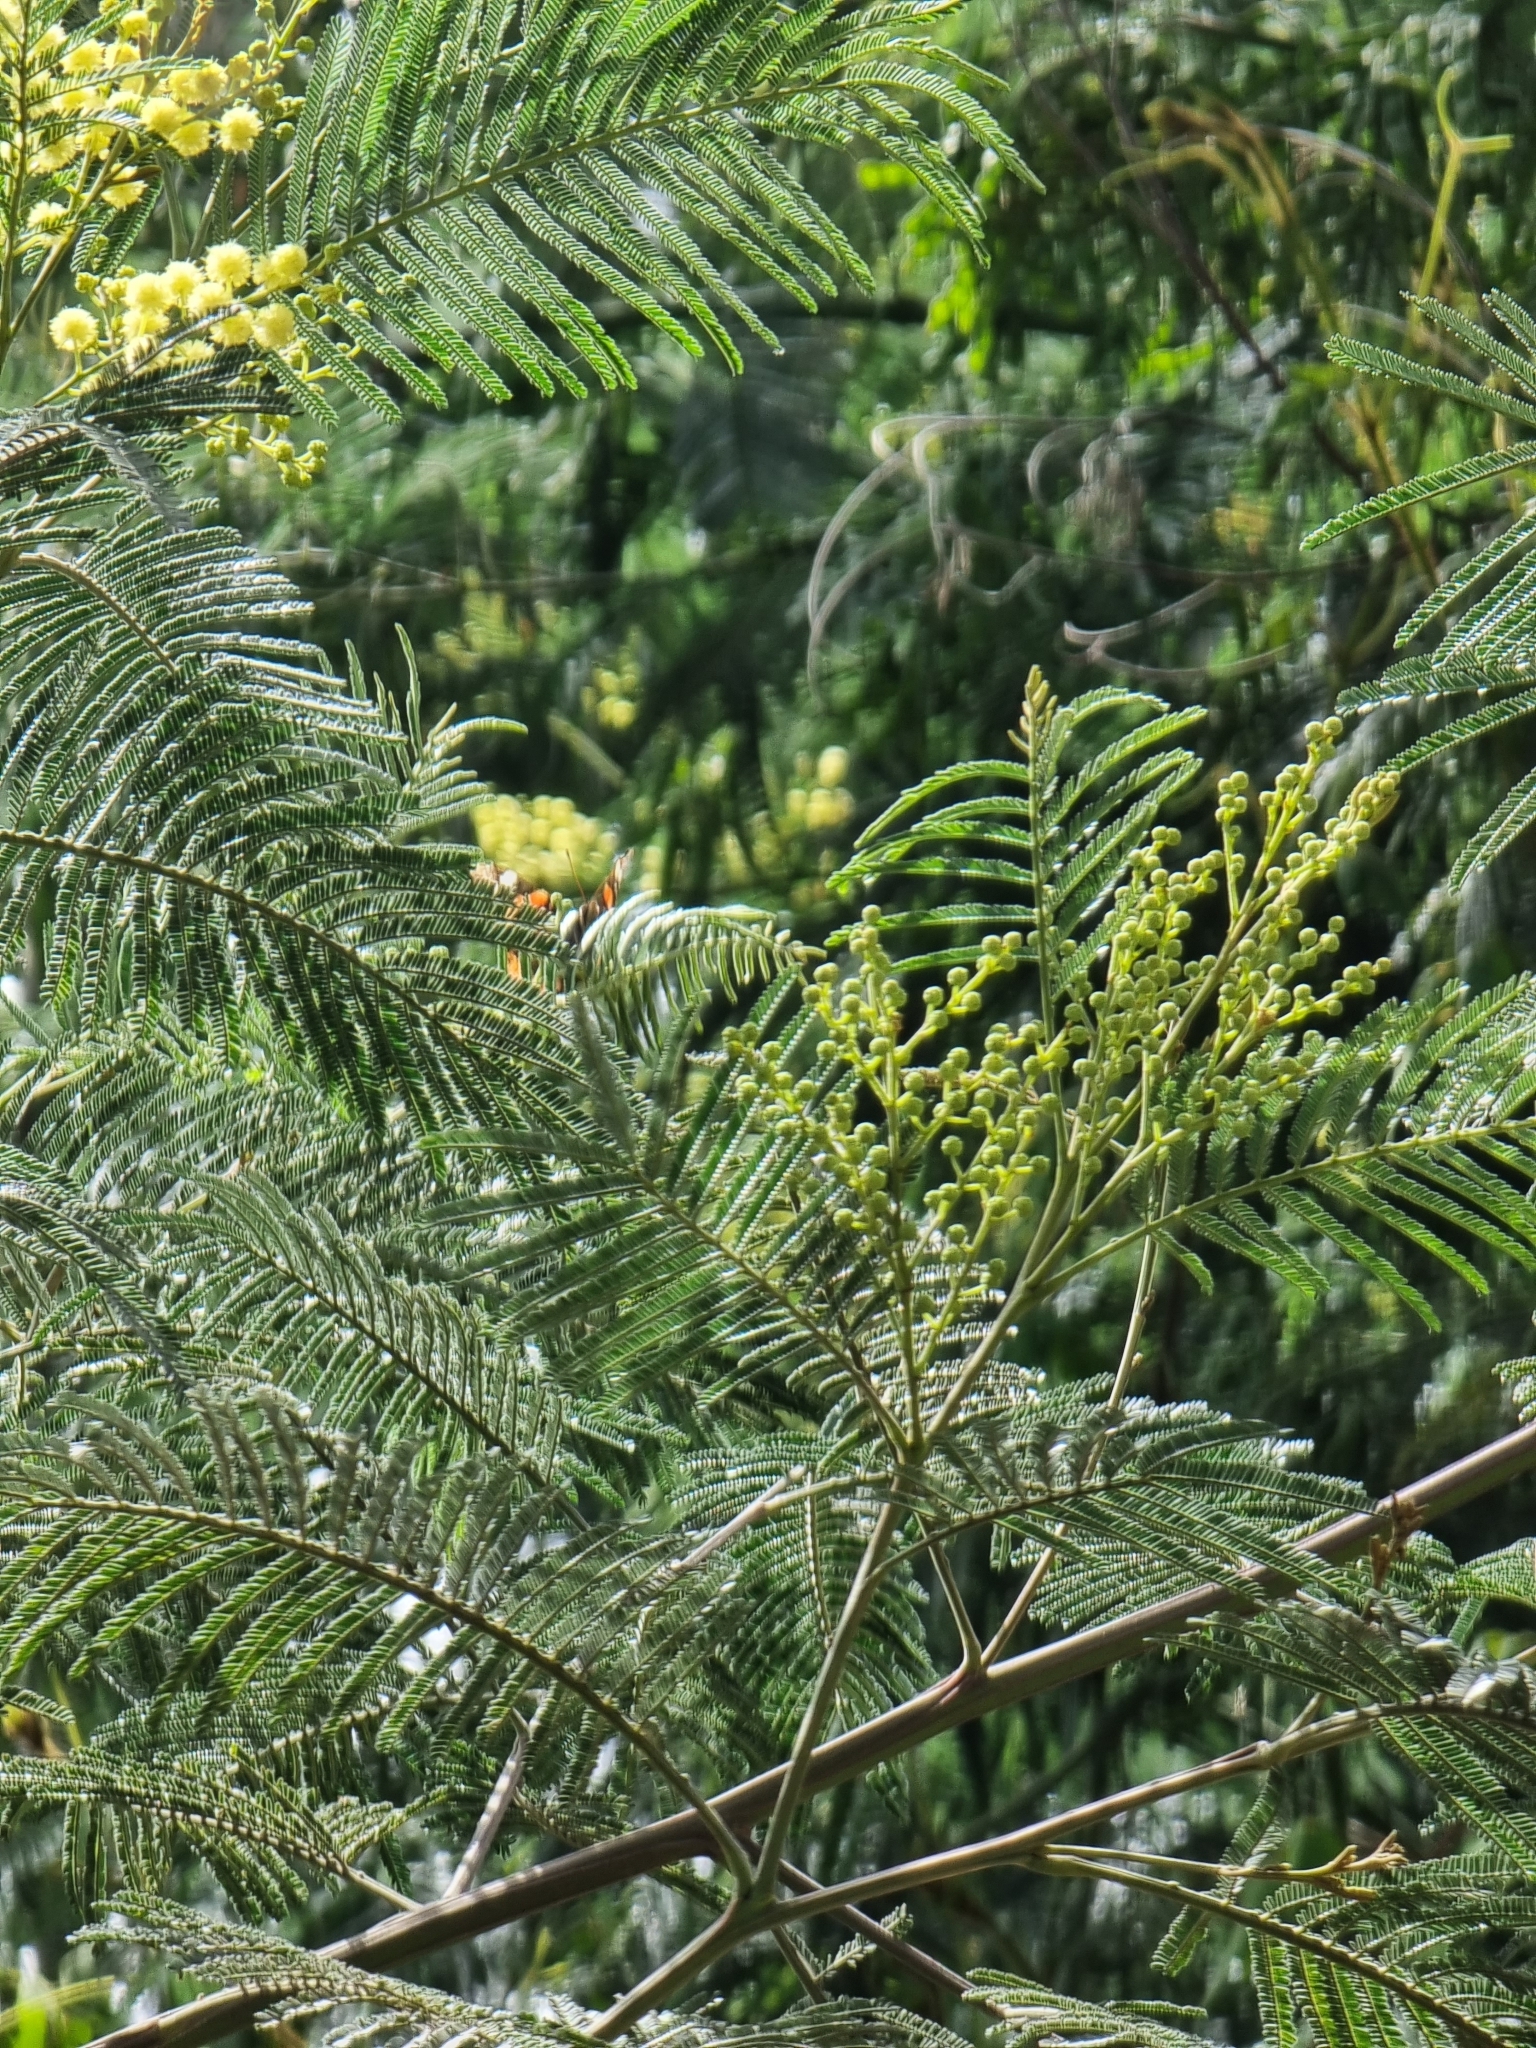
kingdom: Plantae
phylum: Tracheophyta
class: Magnoliopsida
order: Fabales
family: Fabaceae
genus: Acacia
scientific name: Acacia mearnsii
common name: Black wattle
